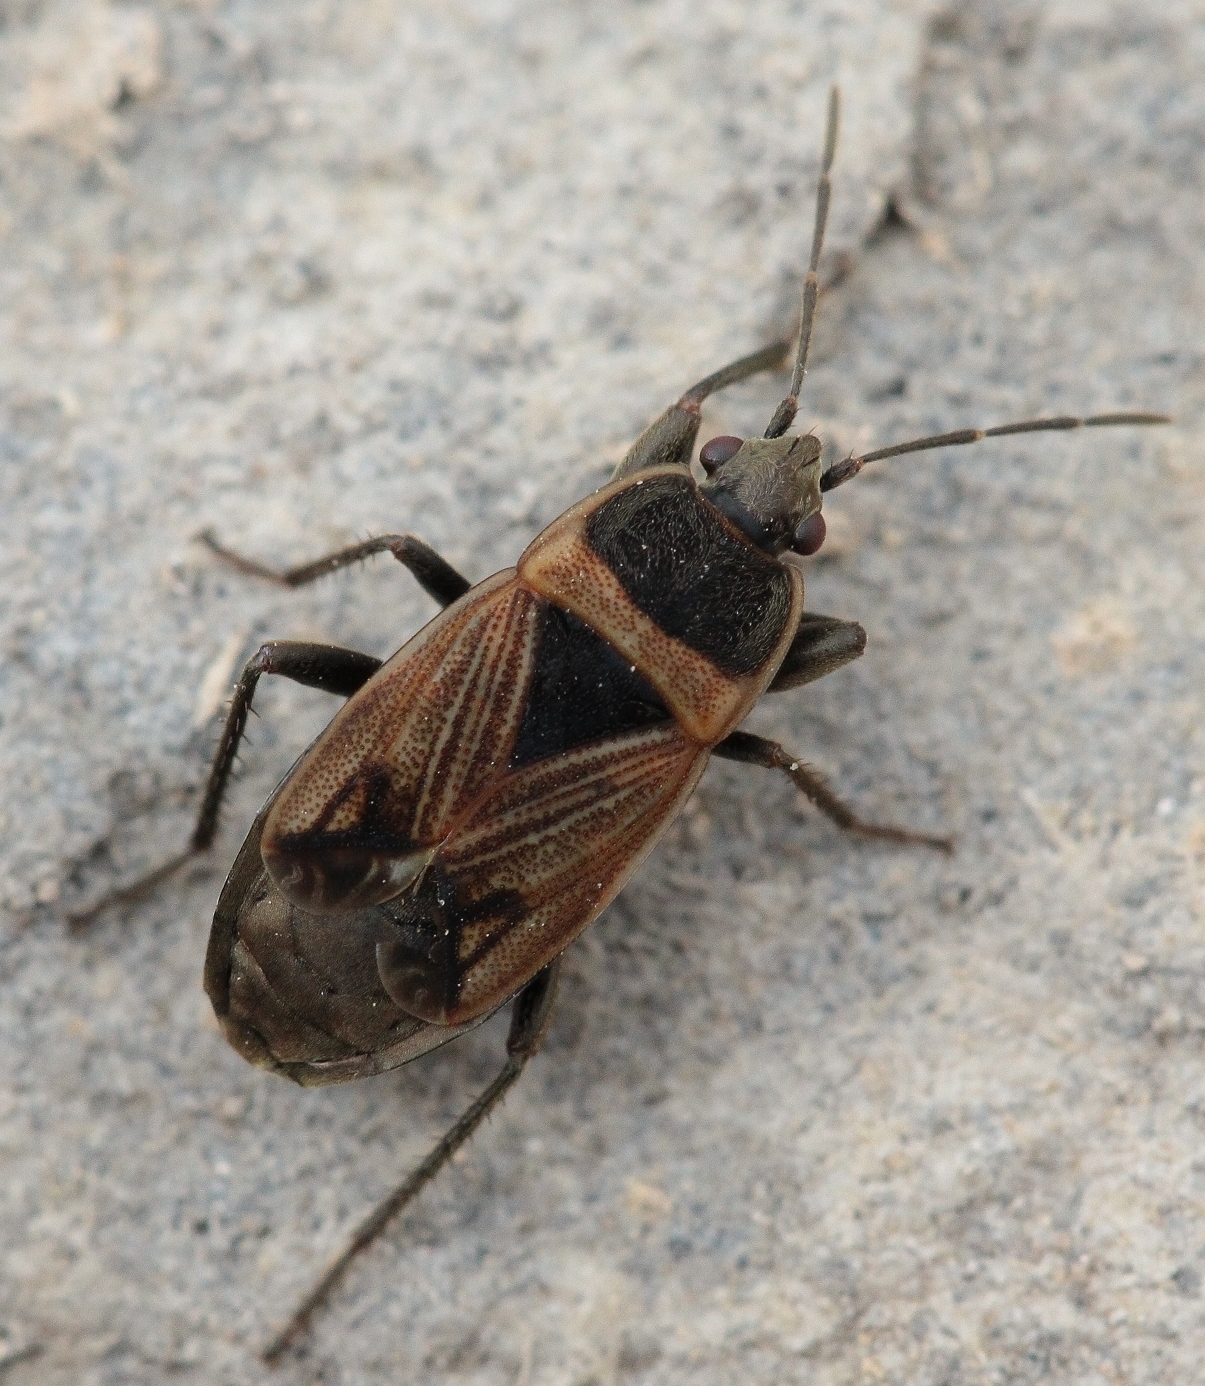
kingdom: Animalia
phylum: Arthropoda
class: Insecta
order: Hemiptera
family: Rhyparochromidae
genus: Bleteogonus
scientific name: Bleteogonus beckeri
